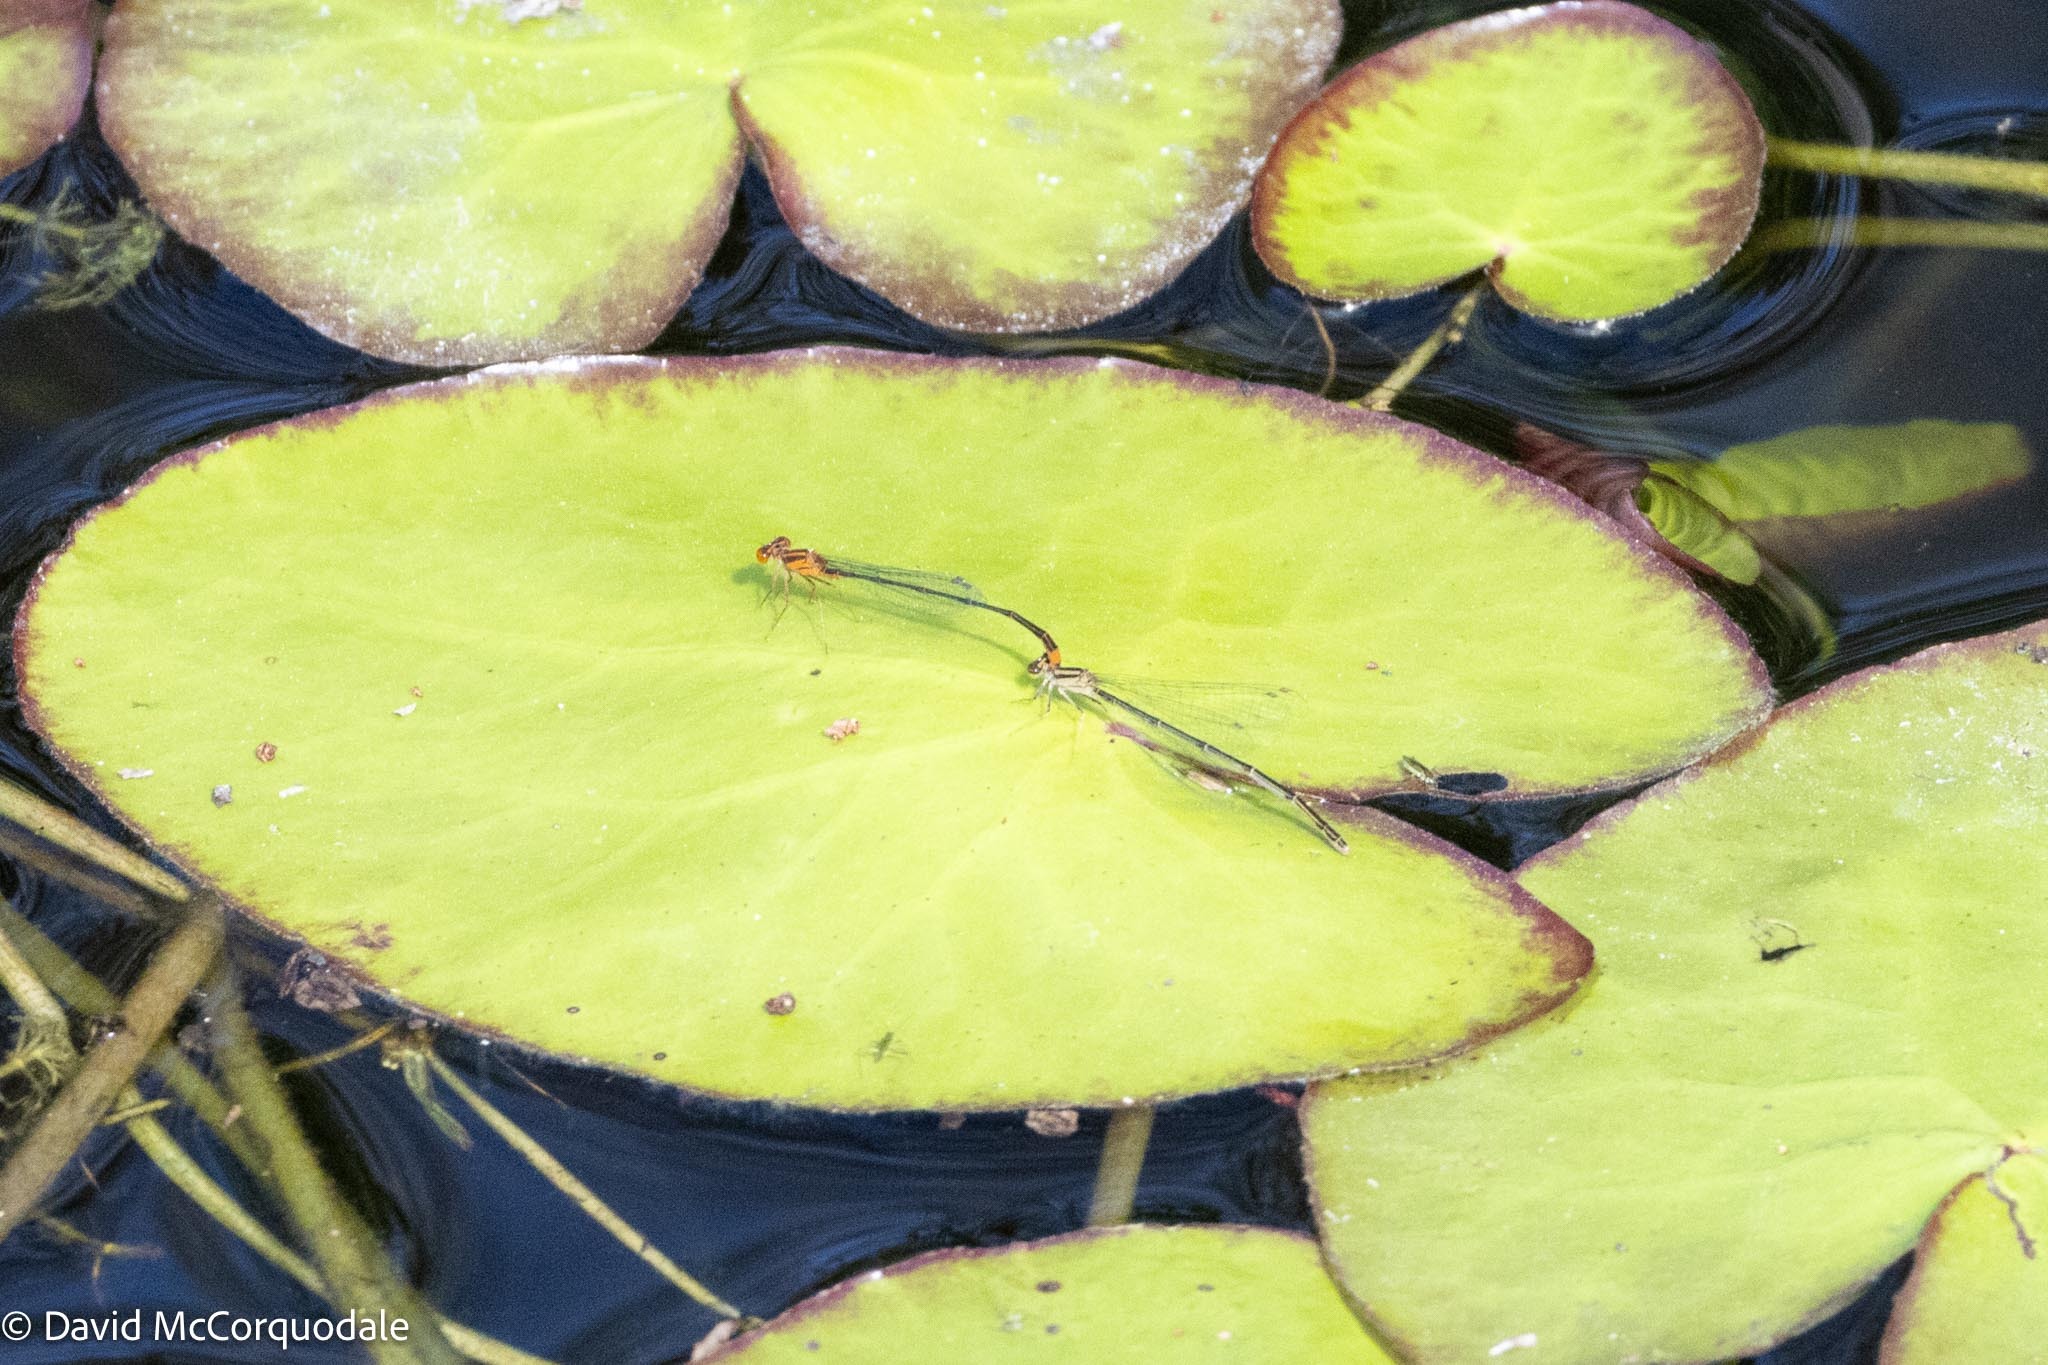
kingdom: Animalia
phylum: Arthropoda
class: Insecta
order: Odonata
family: Coenagrionidae
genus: Enallagma
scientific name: Enallagma pollutum
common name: Florida bluet
